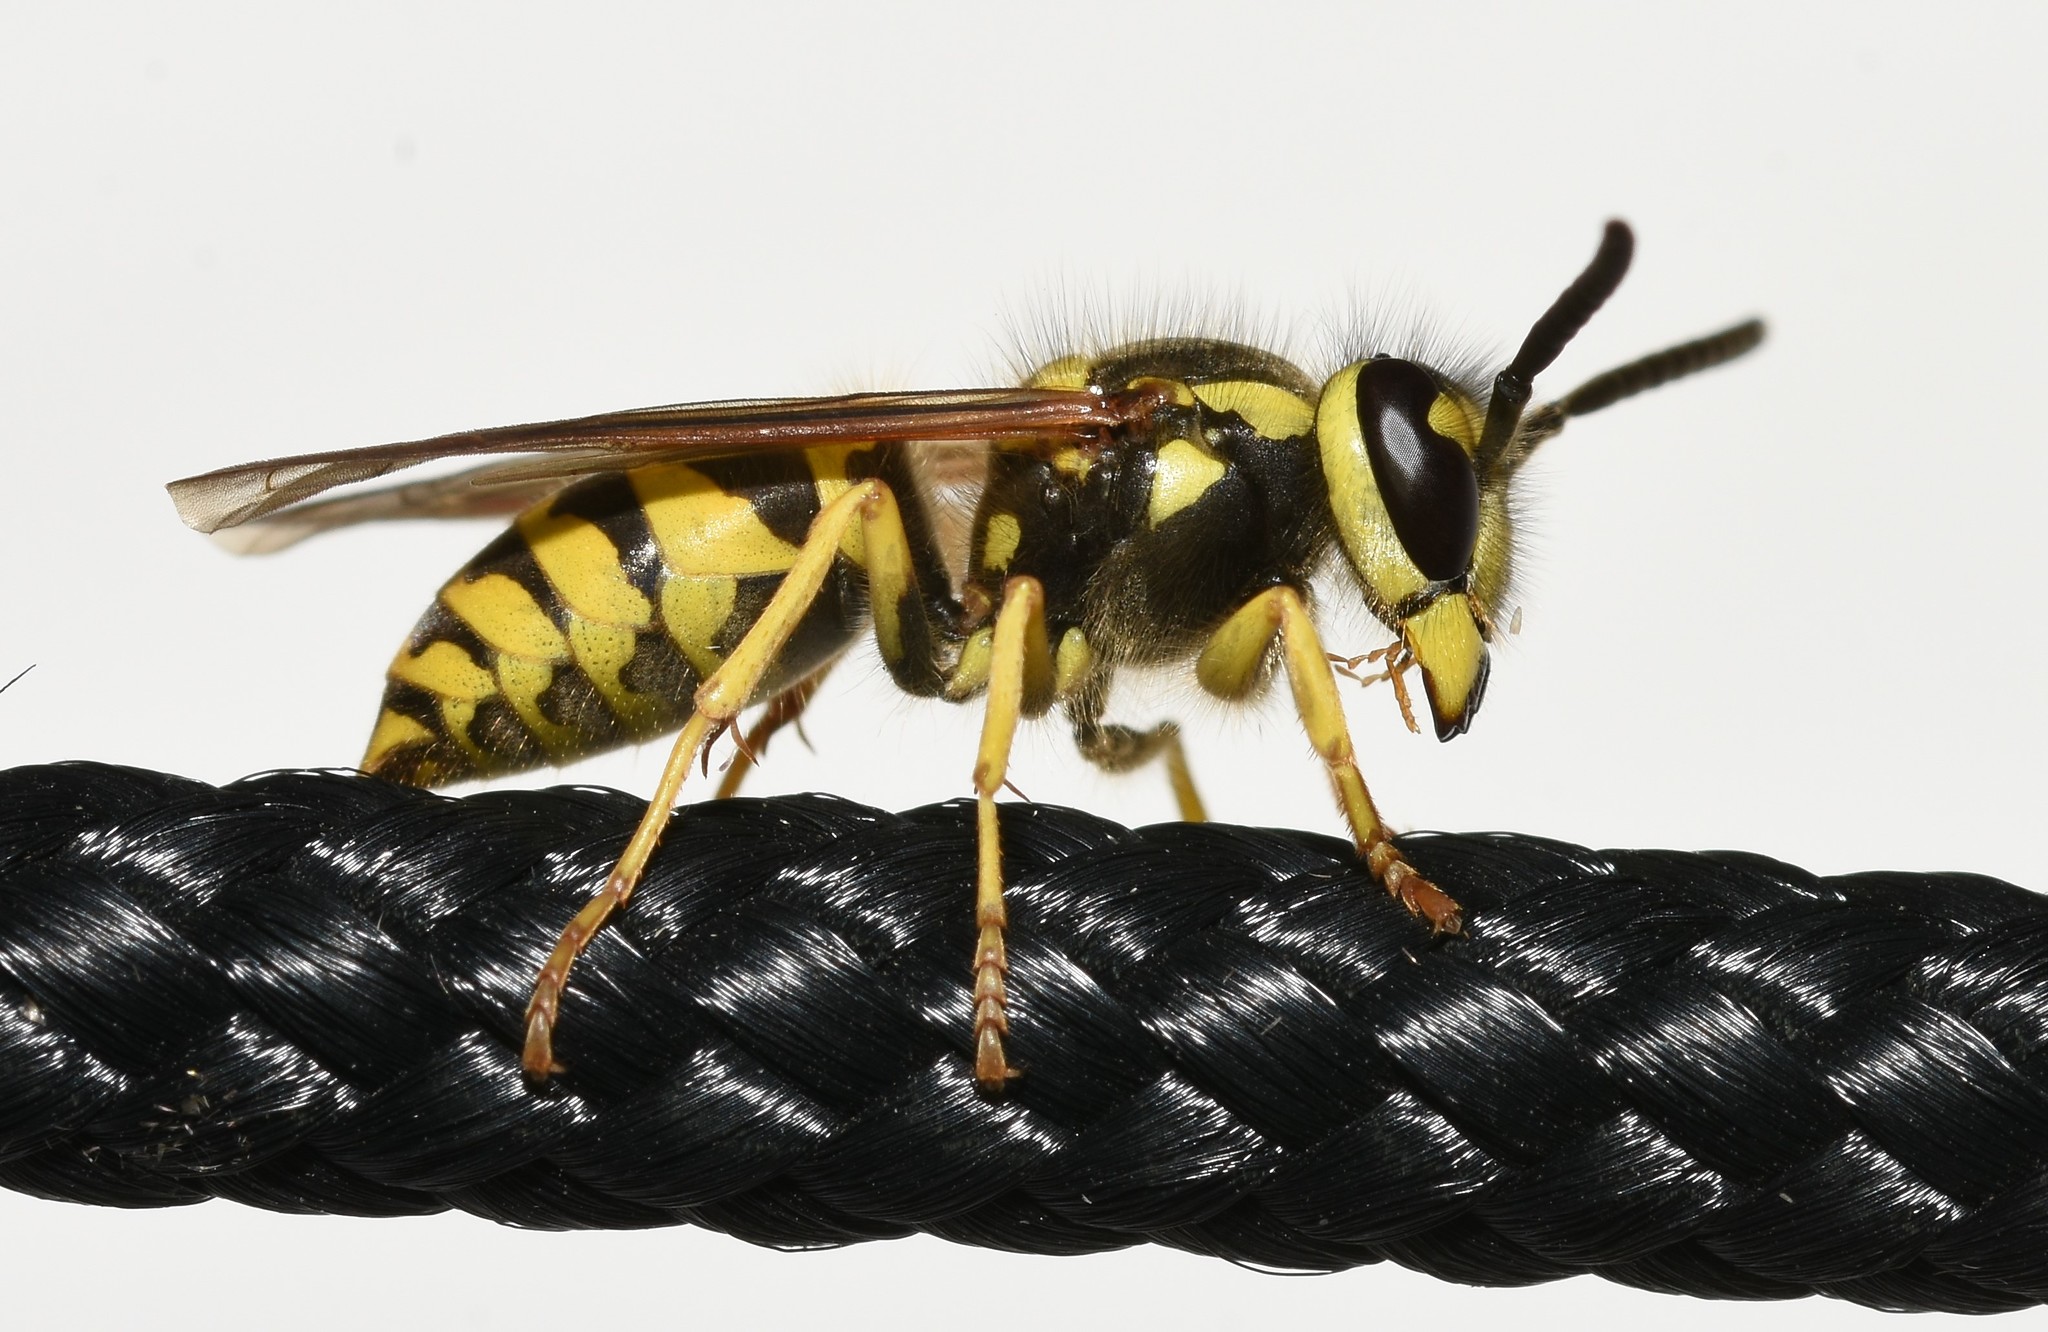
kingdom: Animalia
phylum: Arthropoda
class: Insecta
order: Hymenoptera
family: Vespidae
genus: Vespula
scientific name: Vespula maculifrons
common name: Eastern yellowjacket
